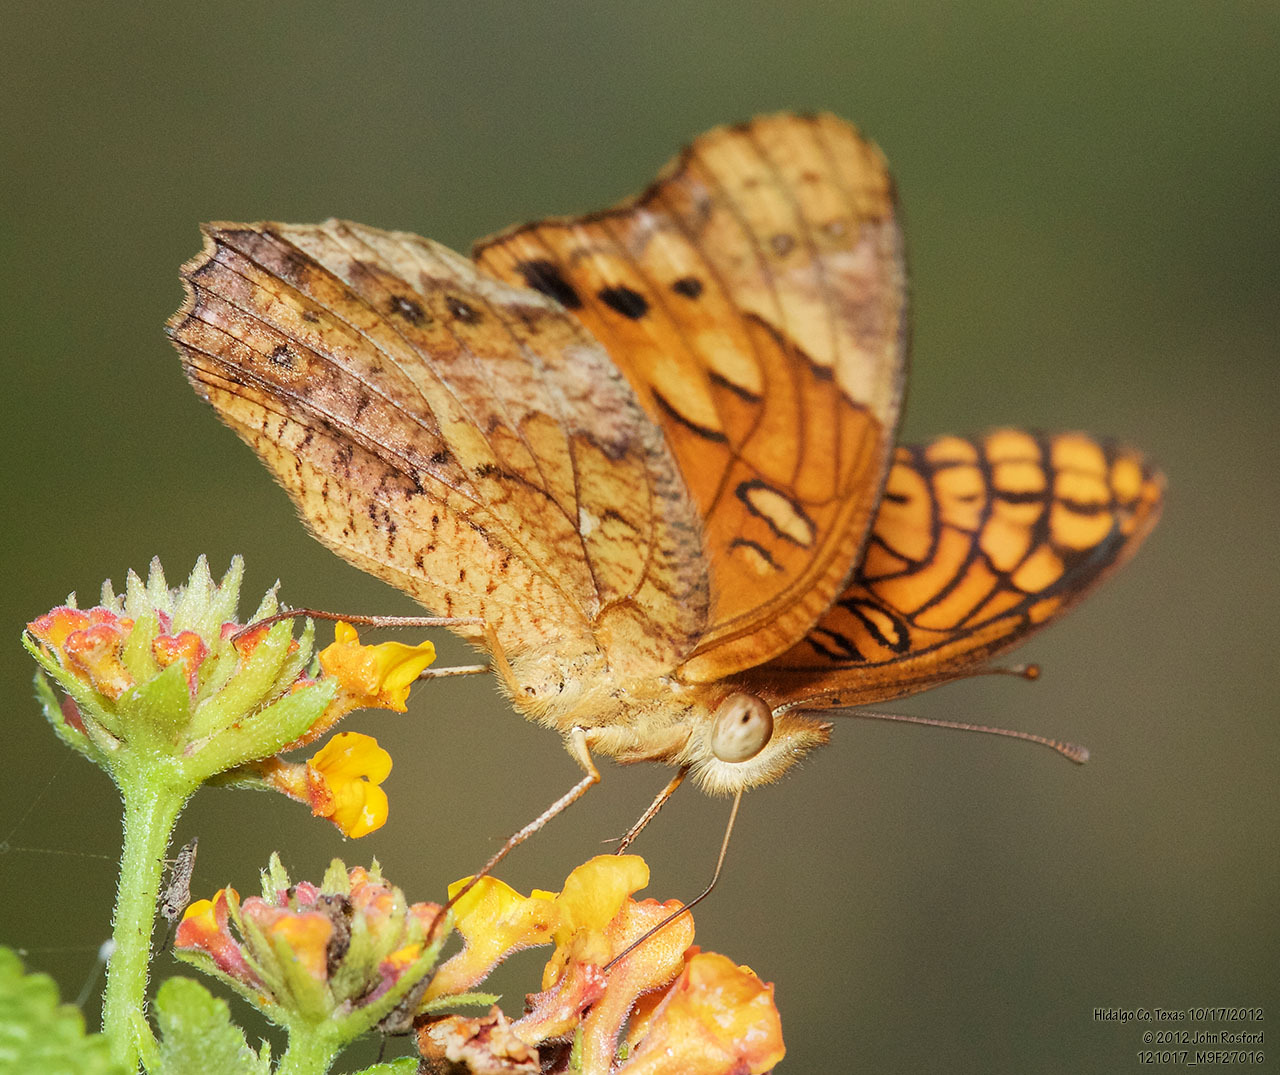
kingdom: Animalia
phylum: Arthropoda
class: Insecta
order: Lepidoptera
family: Nymphalidae
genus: Euptoieta
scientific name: Euptoieta hegesia
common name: Mexican fritillary
